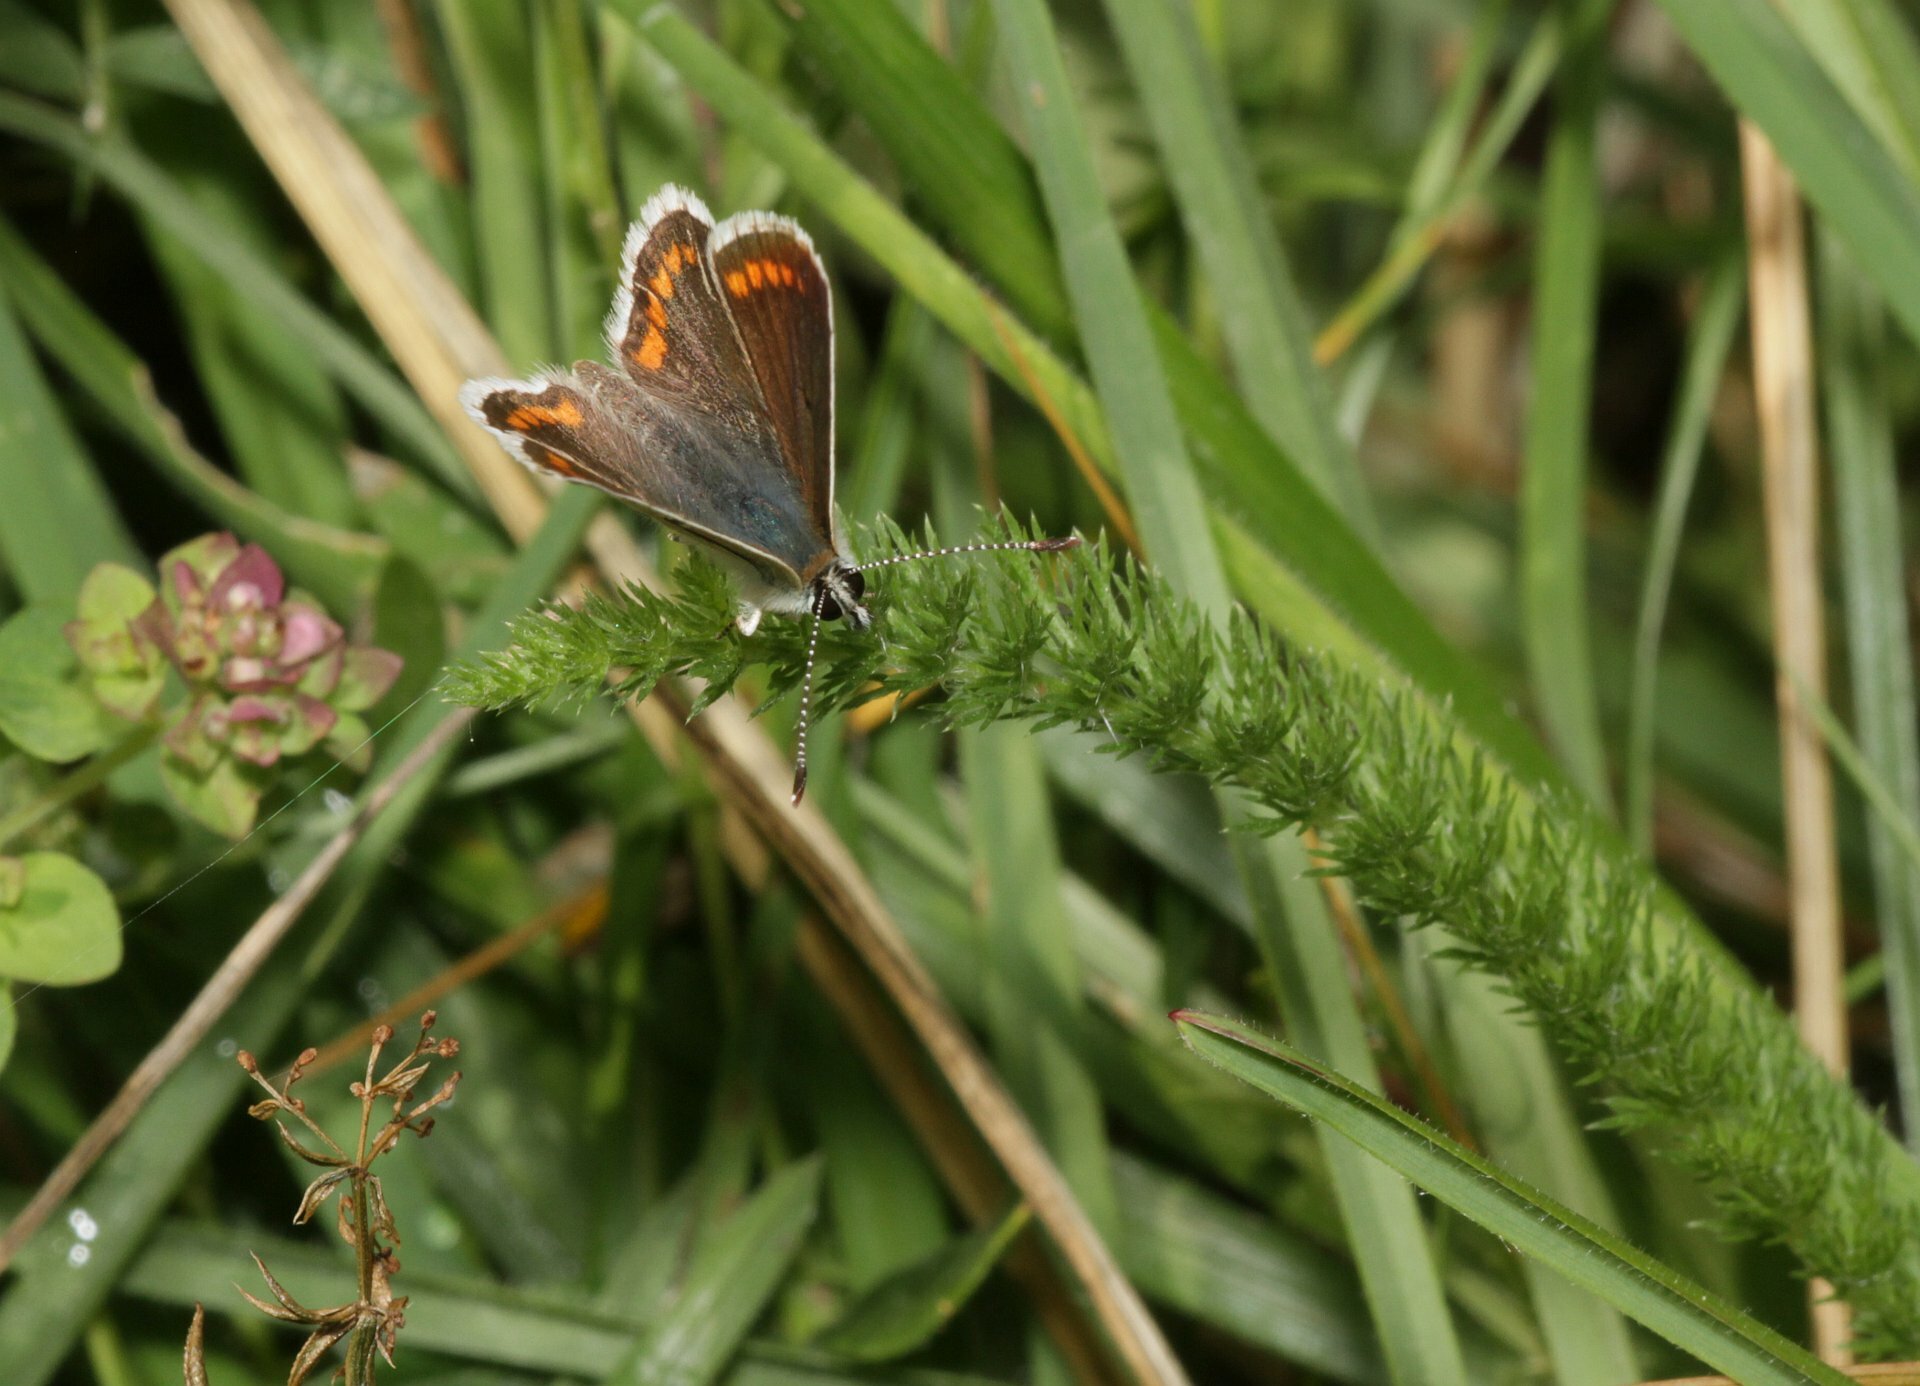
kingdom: Animalia
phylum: Arthropoda
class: Insecta
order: Lepidoptera
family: Lycaenidae
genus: Aricia
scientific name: Aricia agestis
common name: Brown argus
